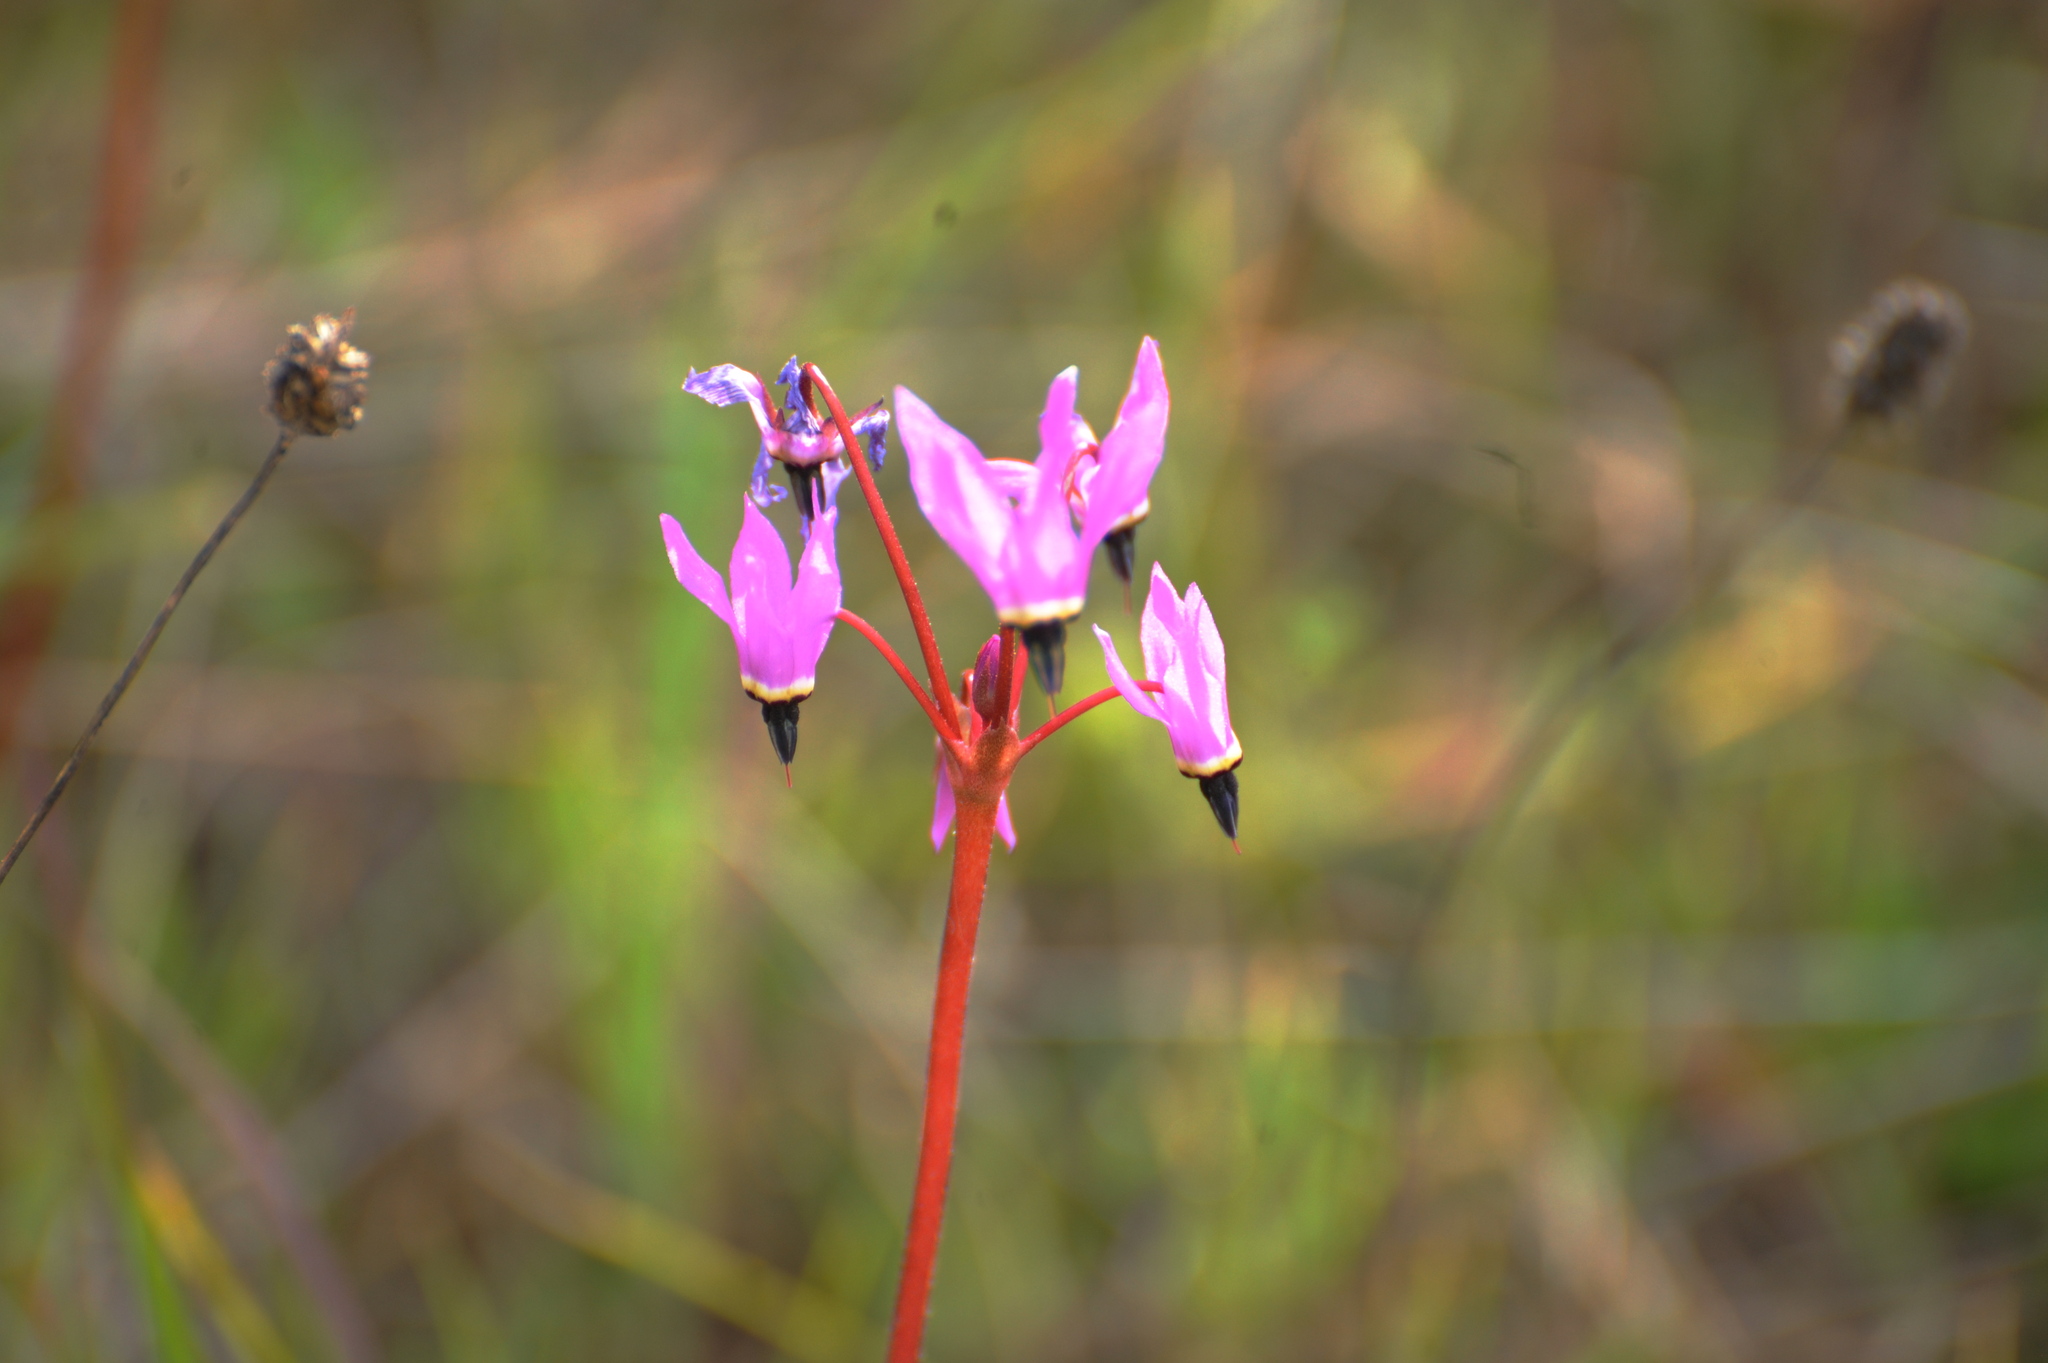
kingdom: Plantae
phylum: Tracheophyta
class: Magnoliopsida
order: Ericales
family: Primulaceae
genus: Dodecatheon
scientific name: Dodecatheon hendersonii
